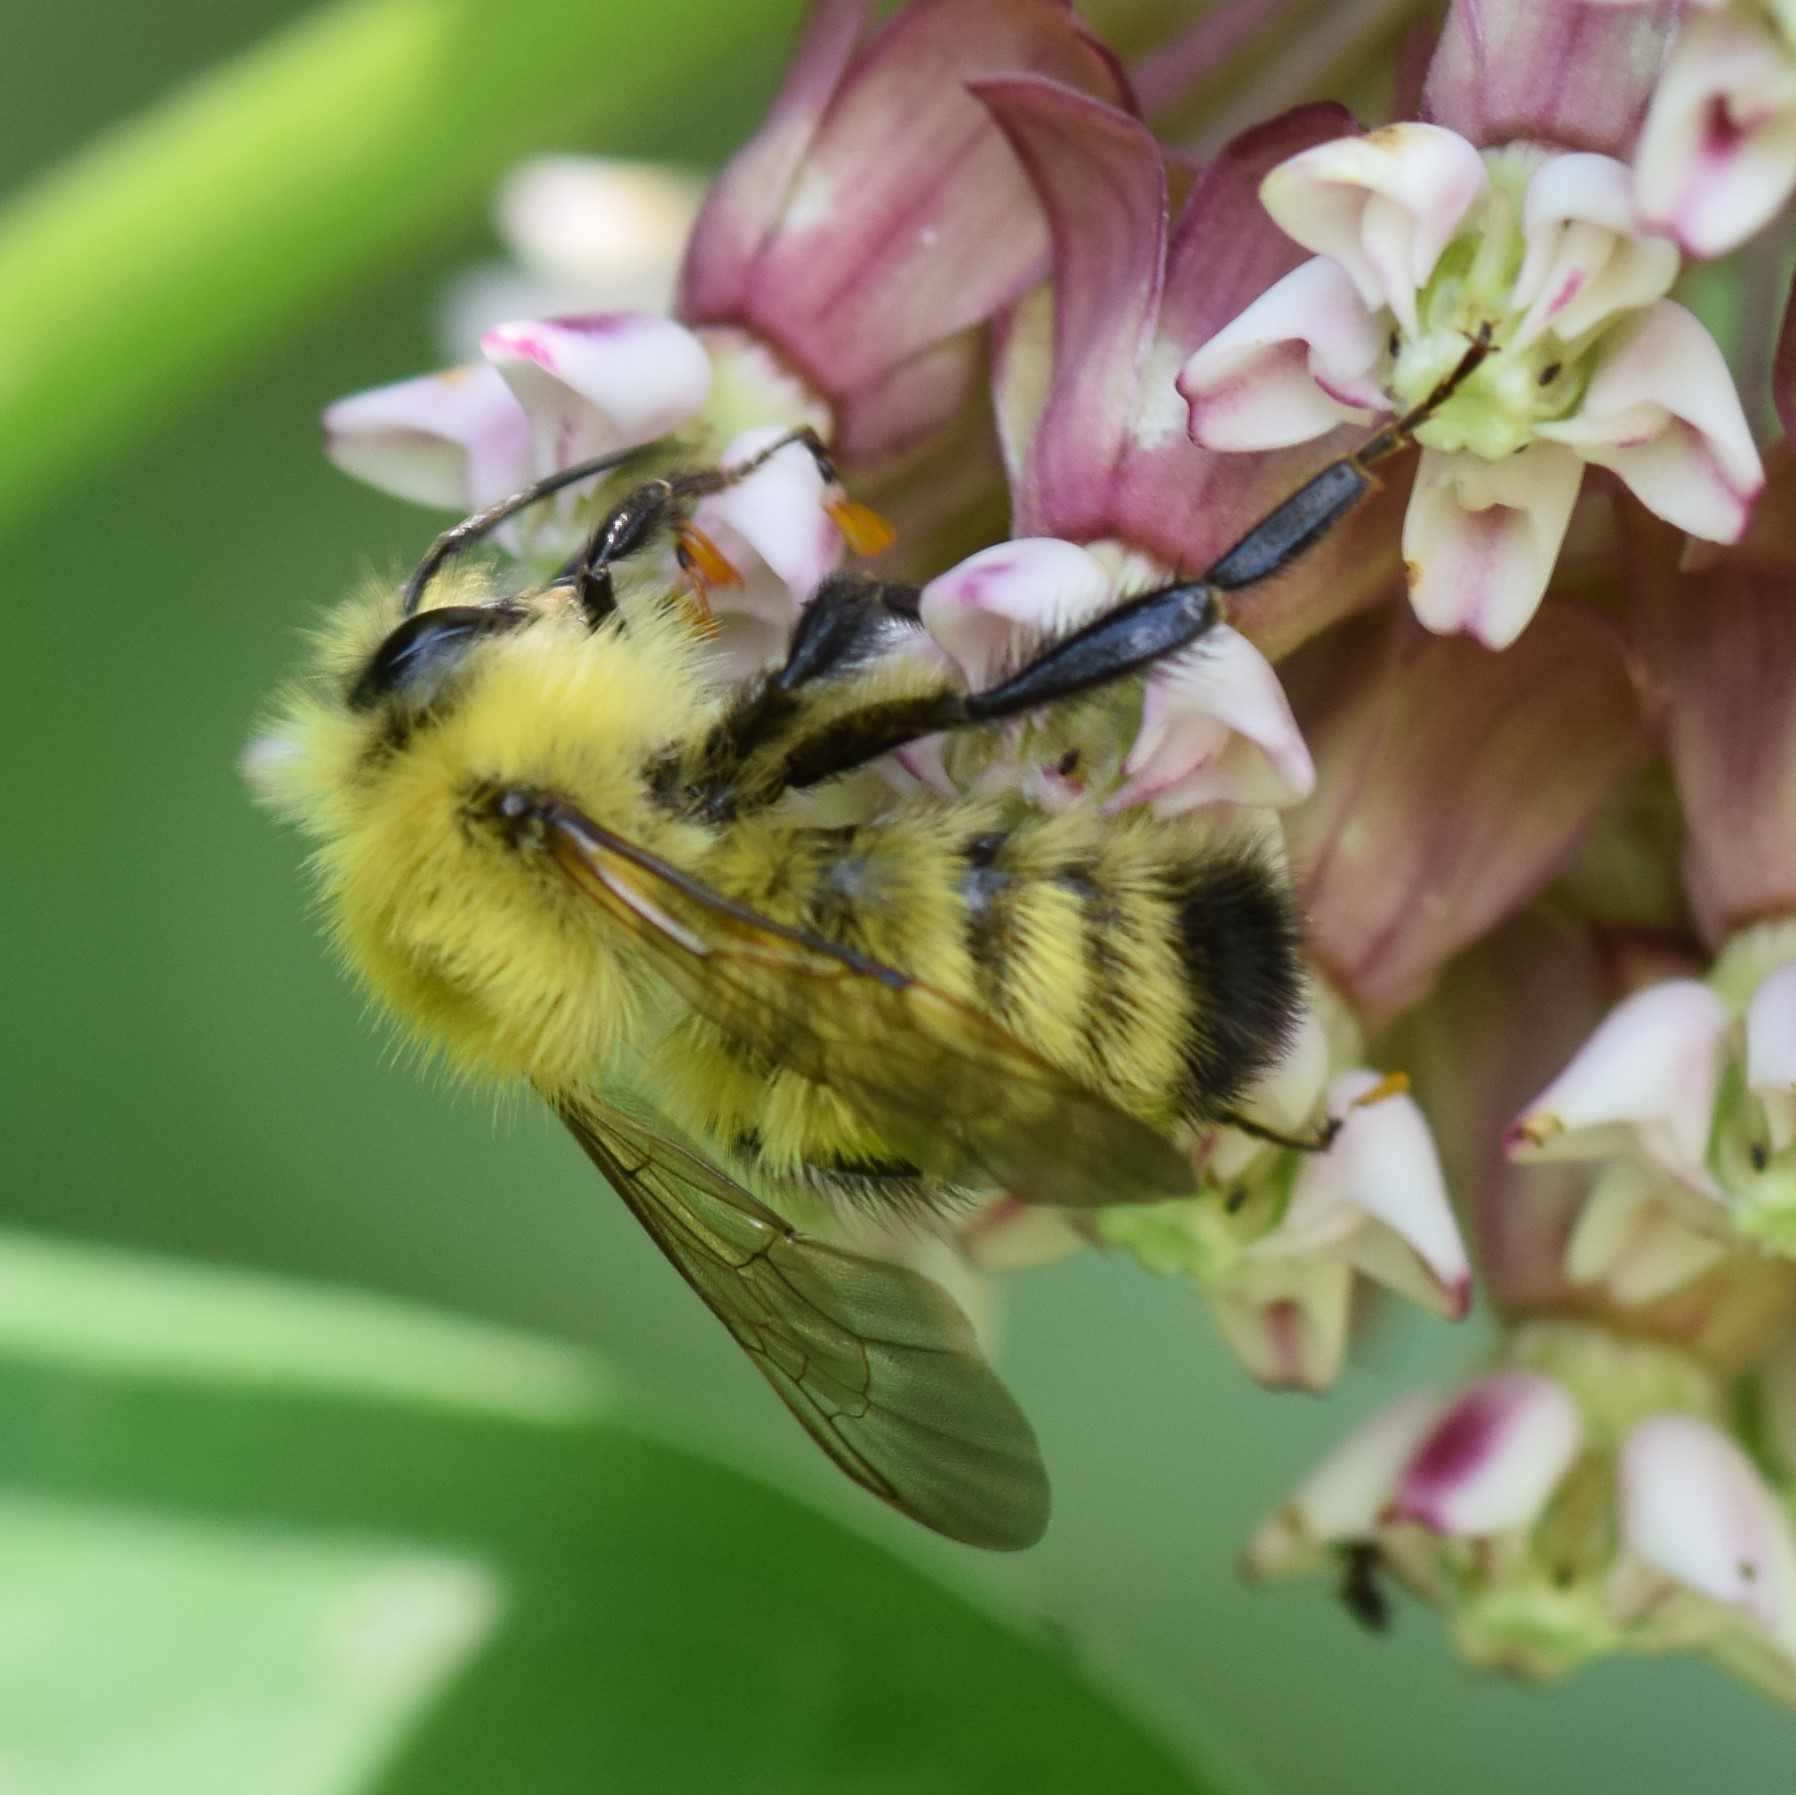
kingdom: Animalia
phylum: Arthropoda
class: Insecta
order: Hymenoptera
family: Apidae
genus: Bombus
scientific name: Bombus perplexus
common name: Confusing bumble bee
